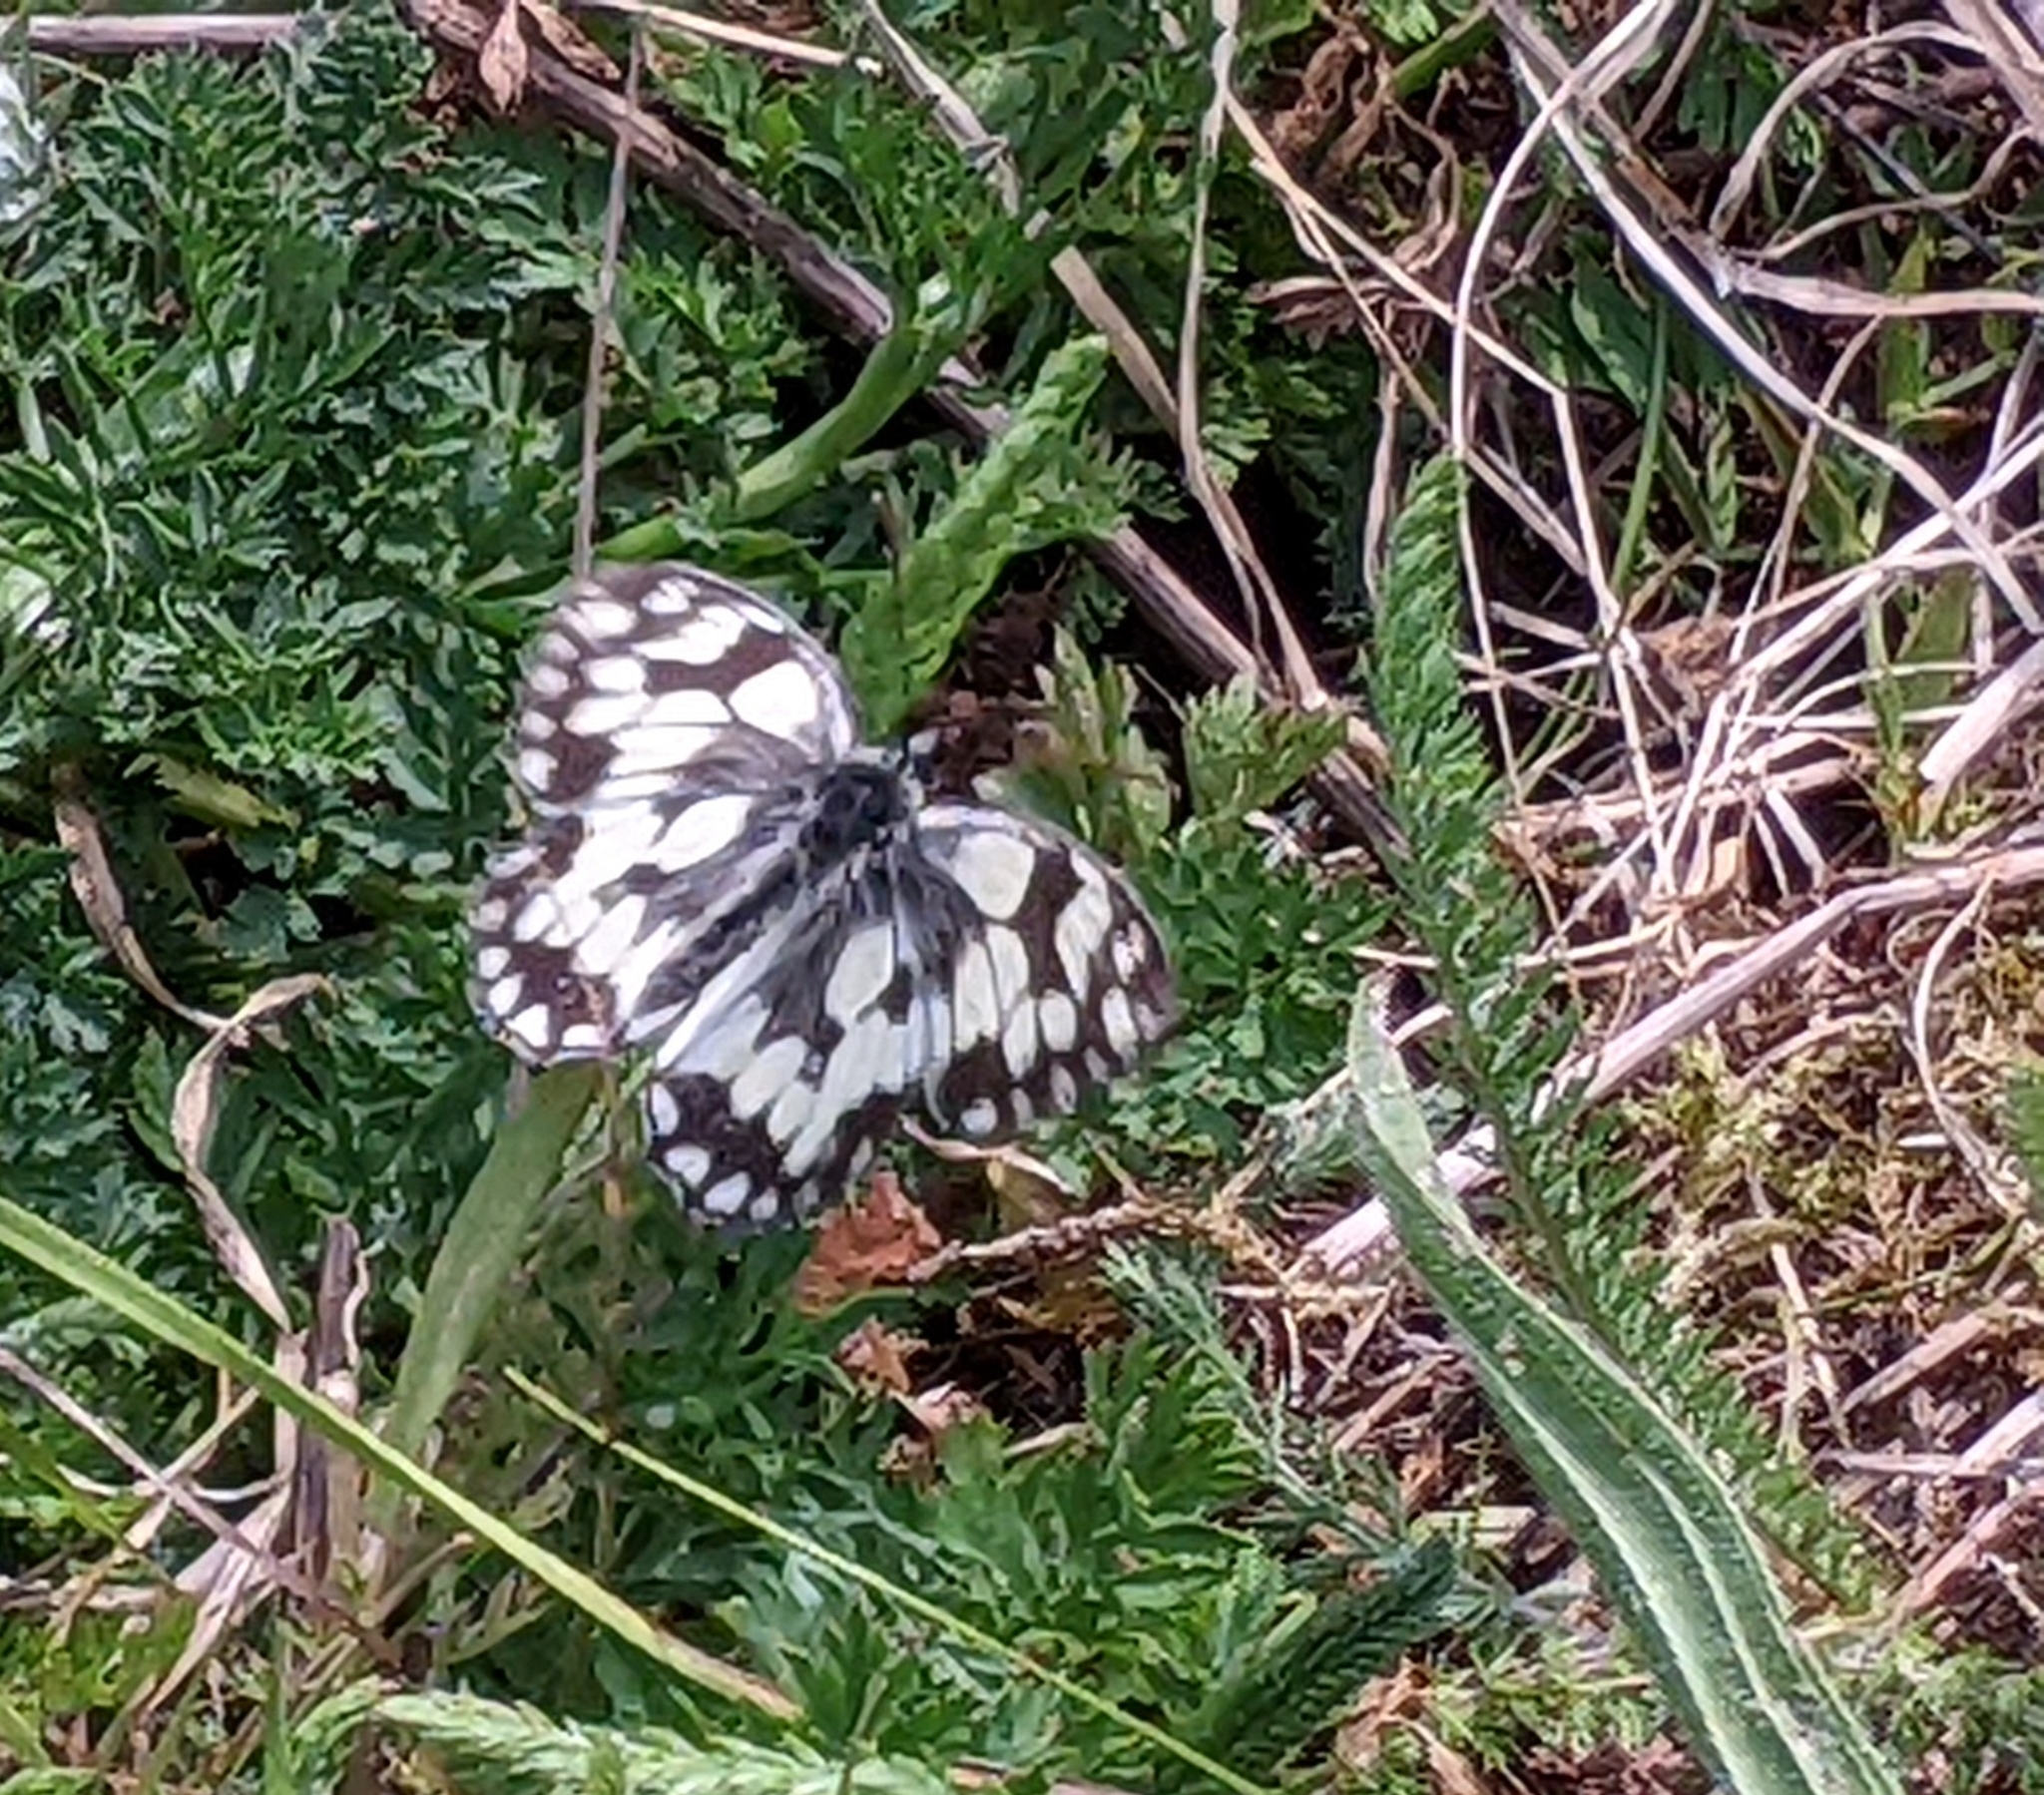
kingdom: Animalia
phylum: Arthropoda
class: Insecta
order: Lepidoptera
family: Nymphalidae
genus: Melanargia
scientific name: Melanargia galathea
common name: Marbled white
